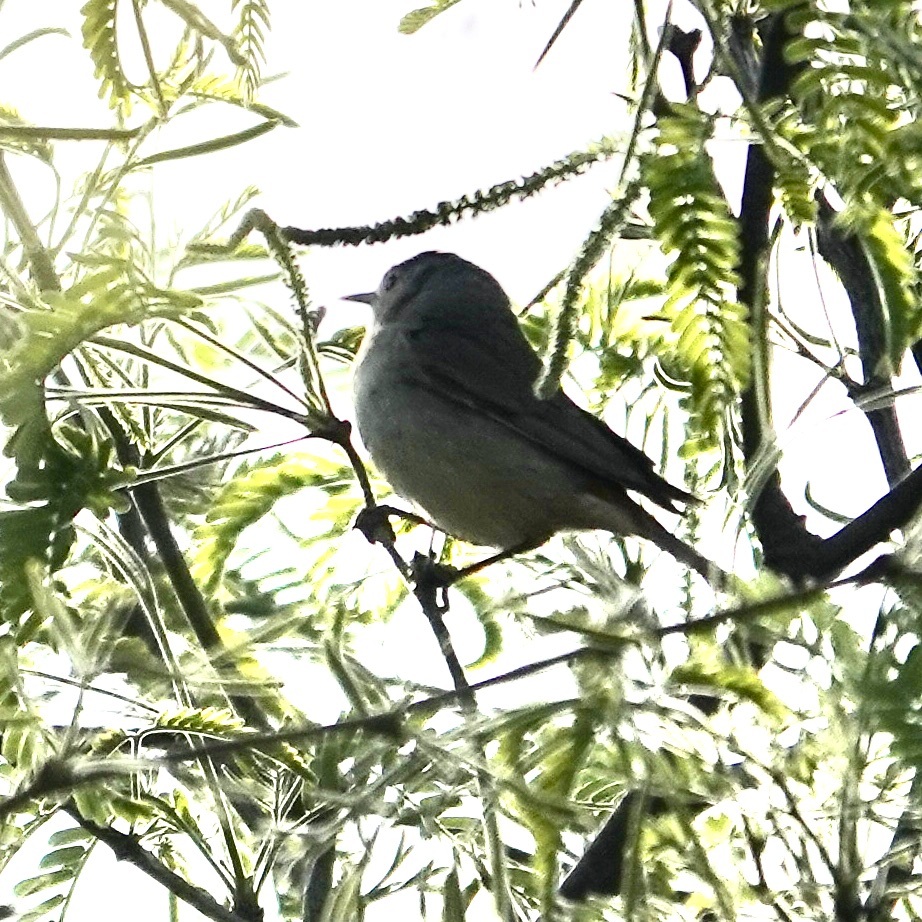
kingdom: Animalia
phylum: Chordata
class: Aves
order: Passeriformes
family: Parulidae
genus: Leiothlypis
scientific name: Leiothlypis luciae
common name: Lucy's warbler
